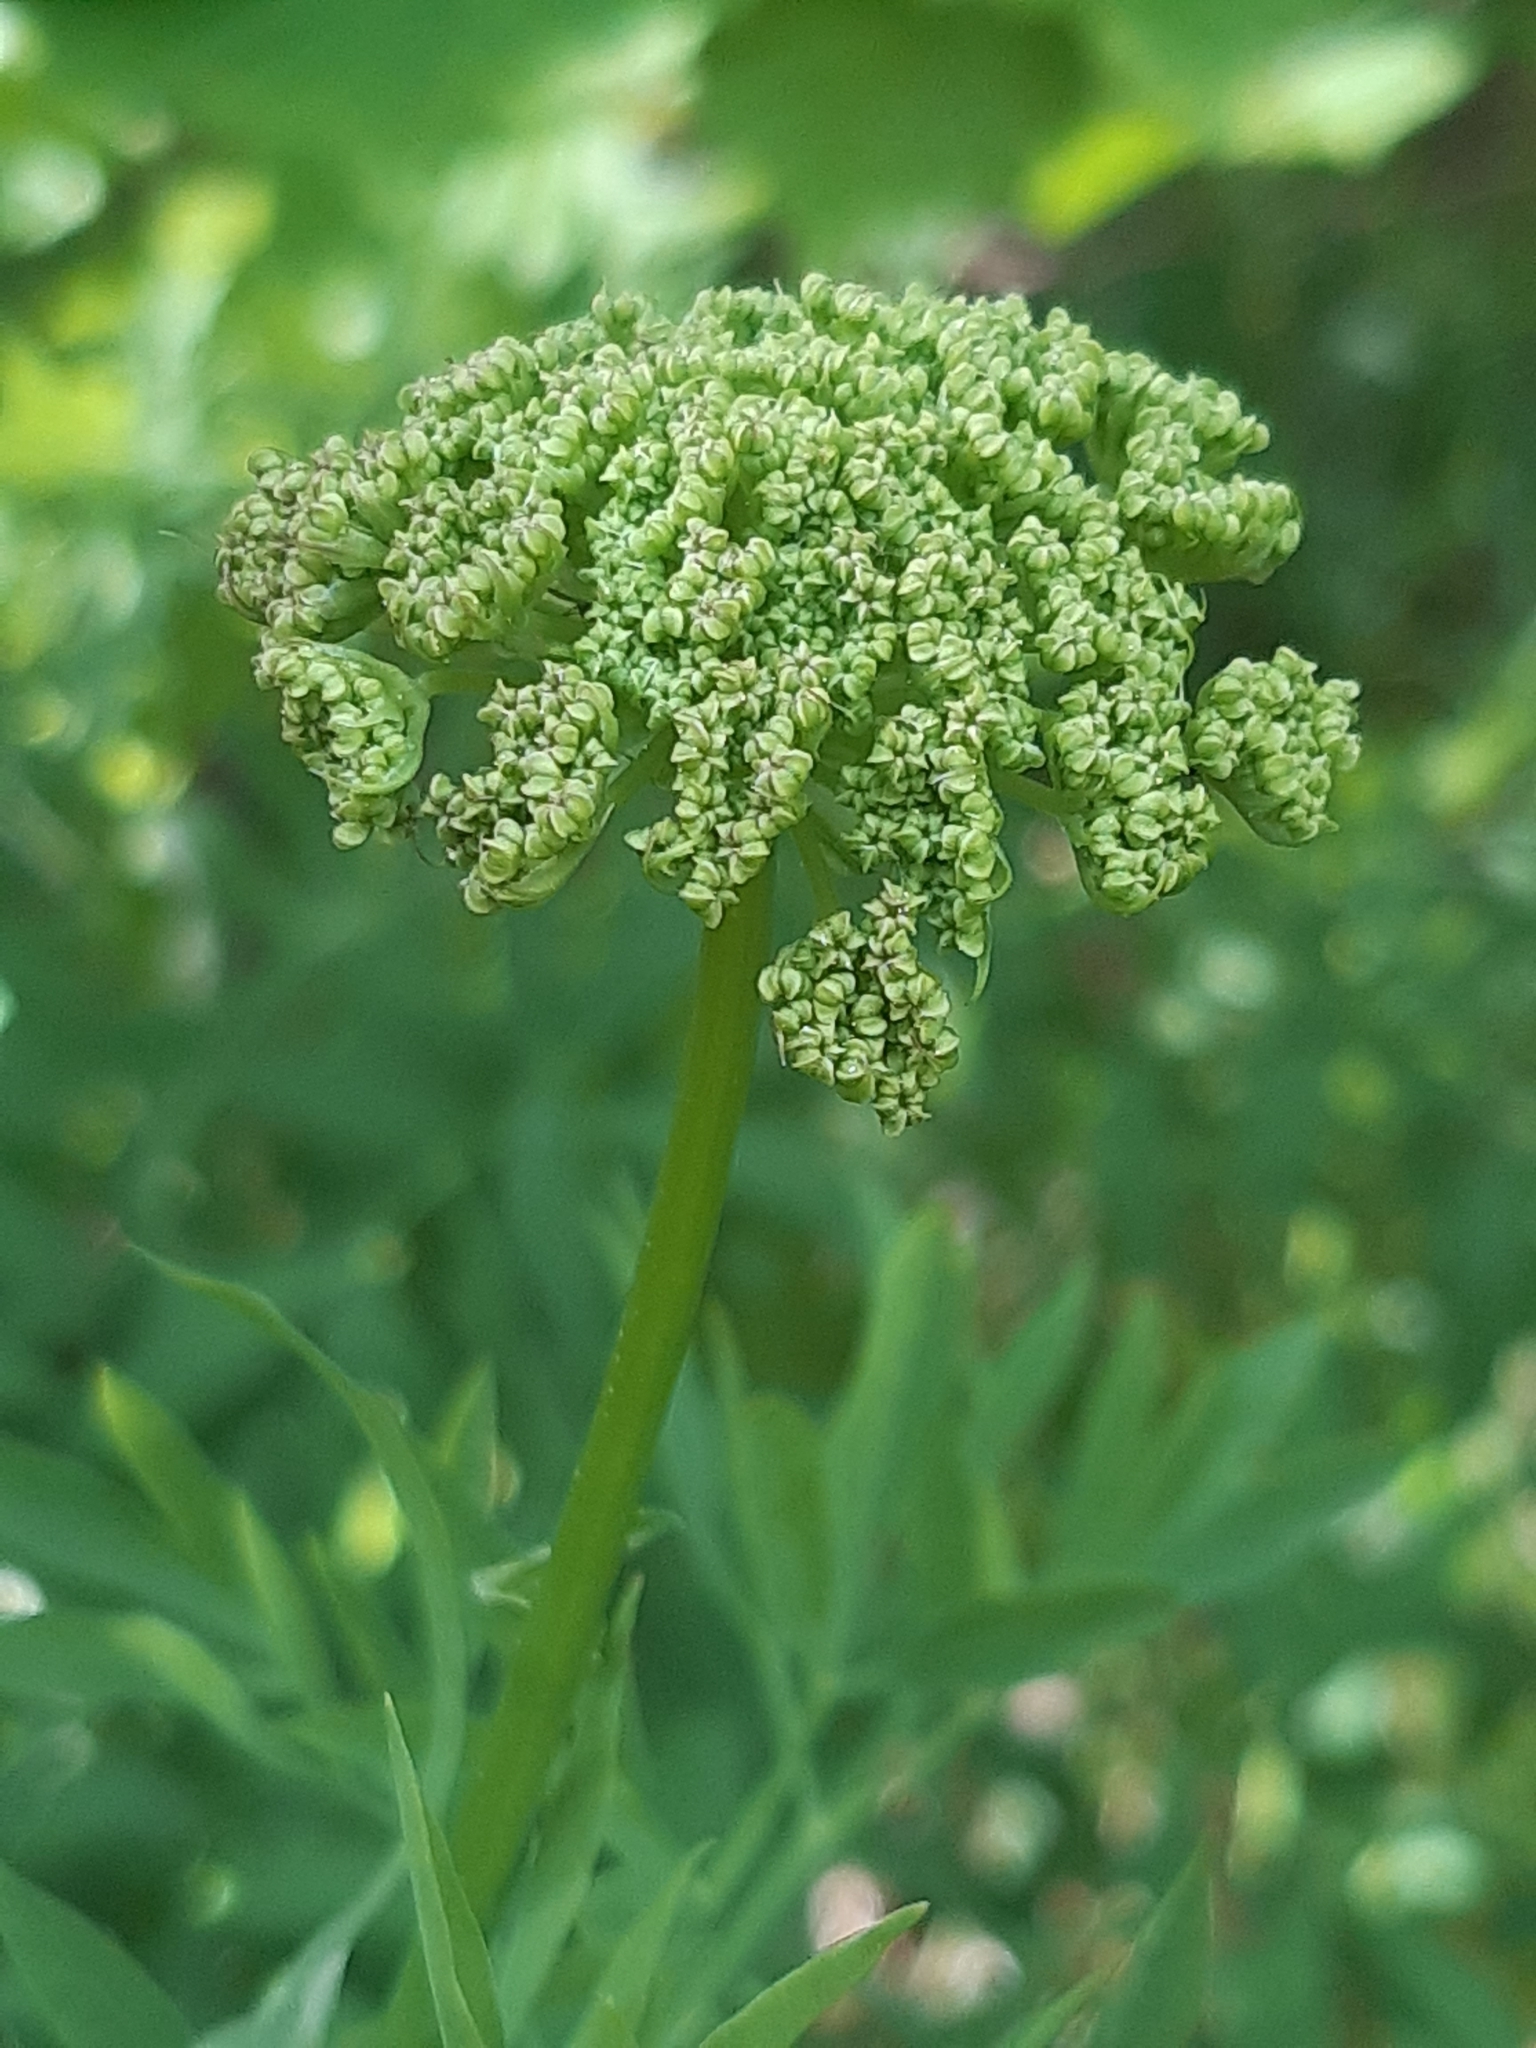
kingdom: Plantae
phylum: Tracheophyta
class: Magnoliopsida
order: Apiales
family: Apiaceae
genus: Siler
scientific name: Siler montanum
